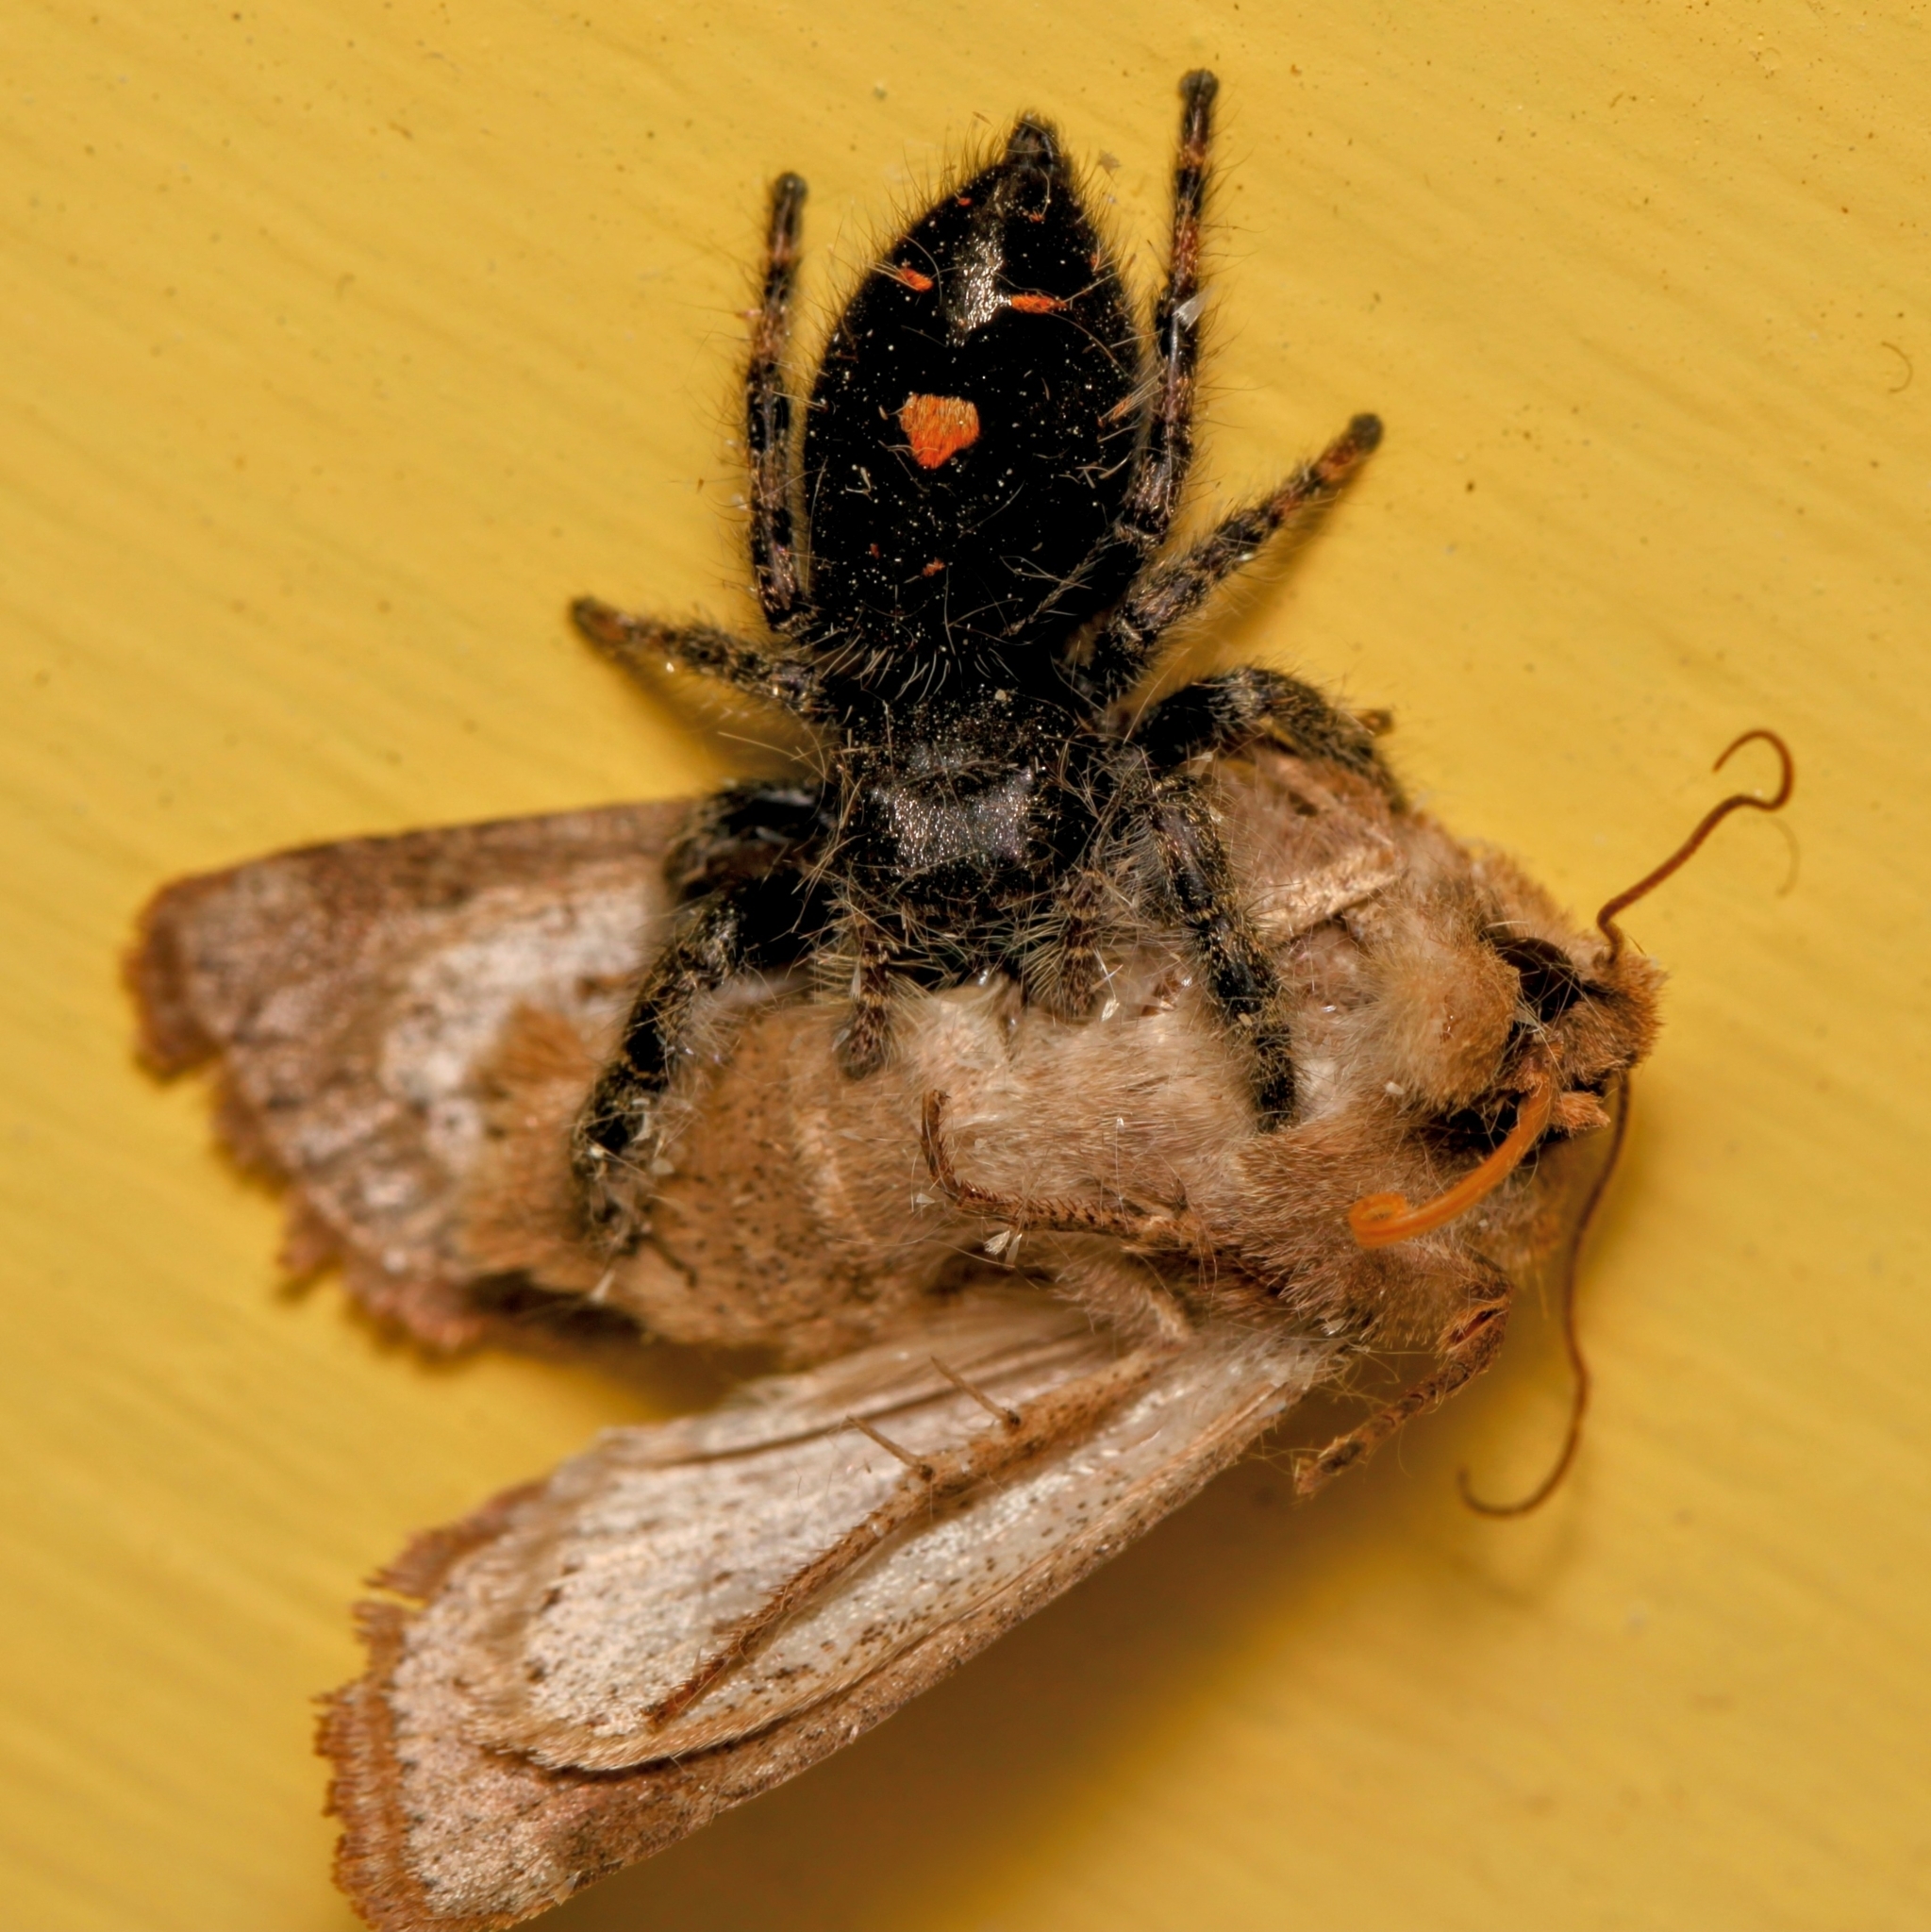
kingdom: Animalia
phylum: Arthropoda
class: Arachnida
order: Araneae
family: Salticidae
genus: Phidippus
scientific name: Phidippus audax
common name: Bold jumper
